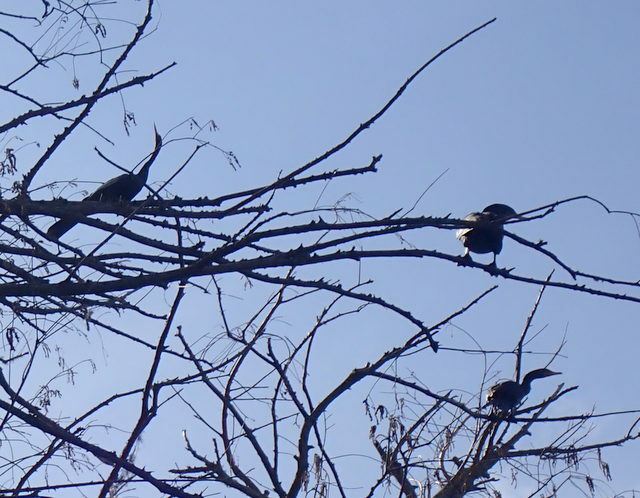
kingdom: Animalia
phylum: Chordata
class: Aves
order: Suliformes
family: Phalacrocoracidae
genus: Phalacrocorax
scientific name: Phalacrocorax auritus
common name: Double-crested cormorant
